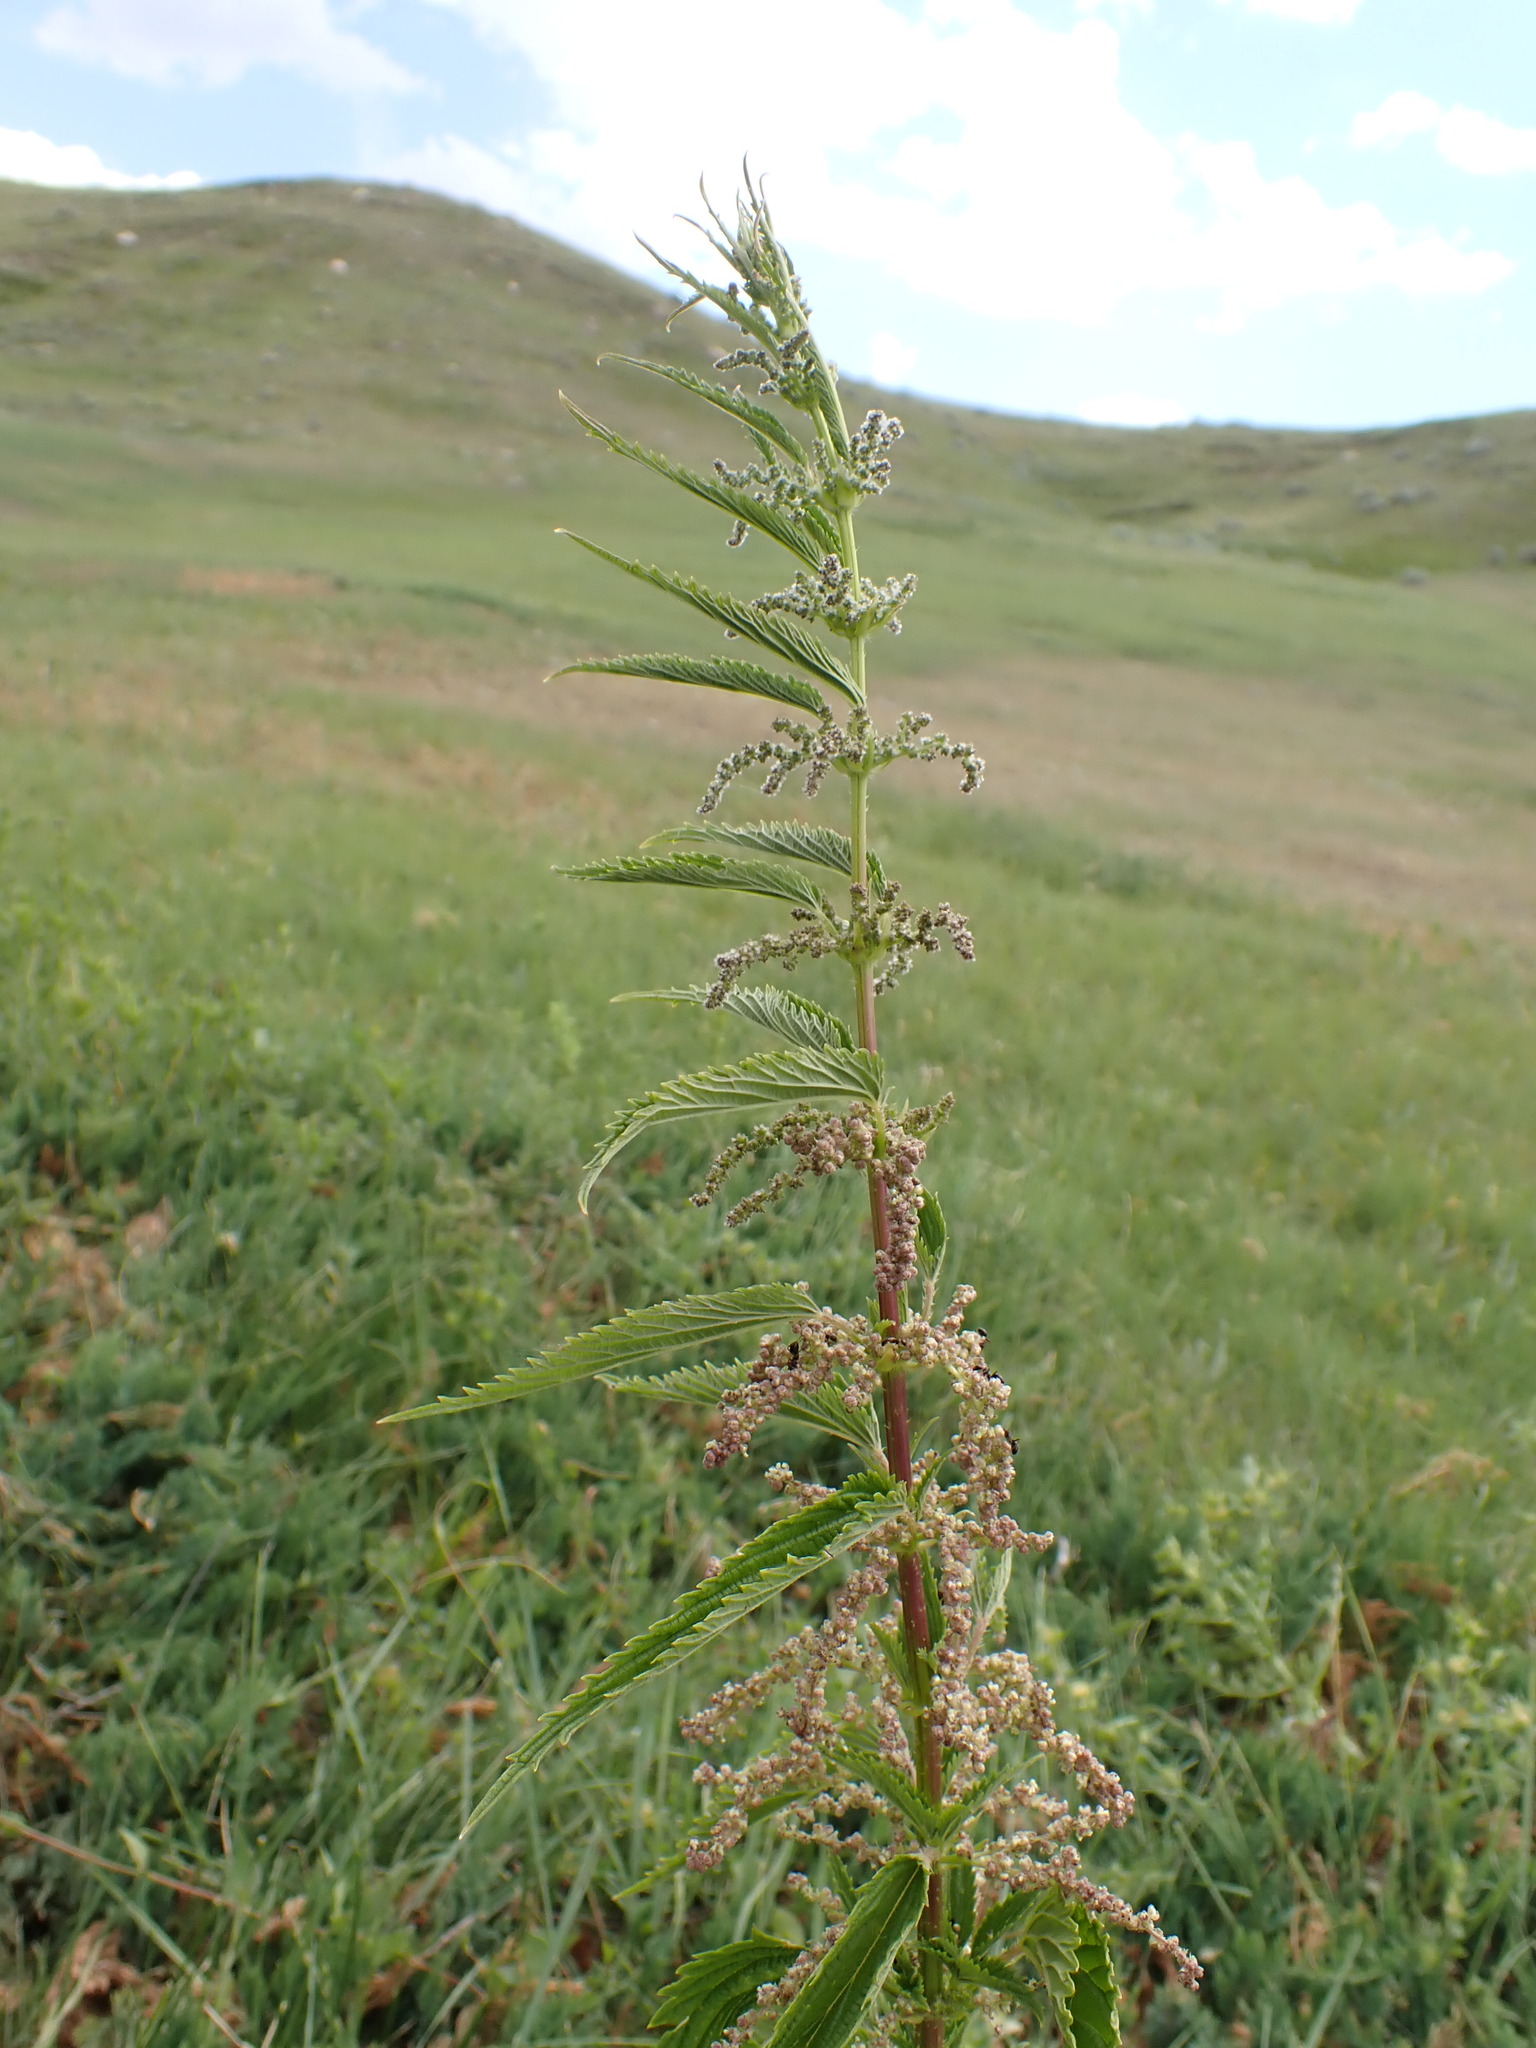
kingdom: Plantae
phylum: Tracheophyta
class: Magnoliopsida
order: Rosales
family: Urticaceae
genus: Urtica
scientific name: Urtica gracilis
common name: Slender stinging nettle
